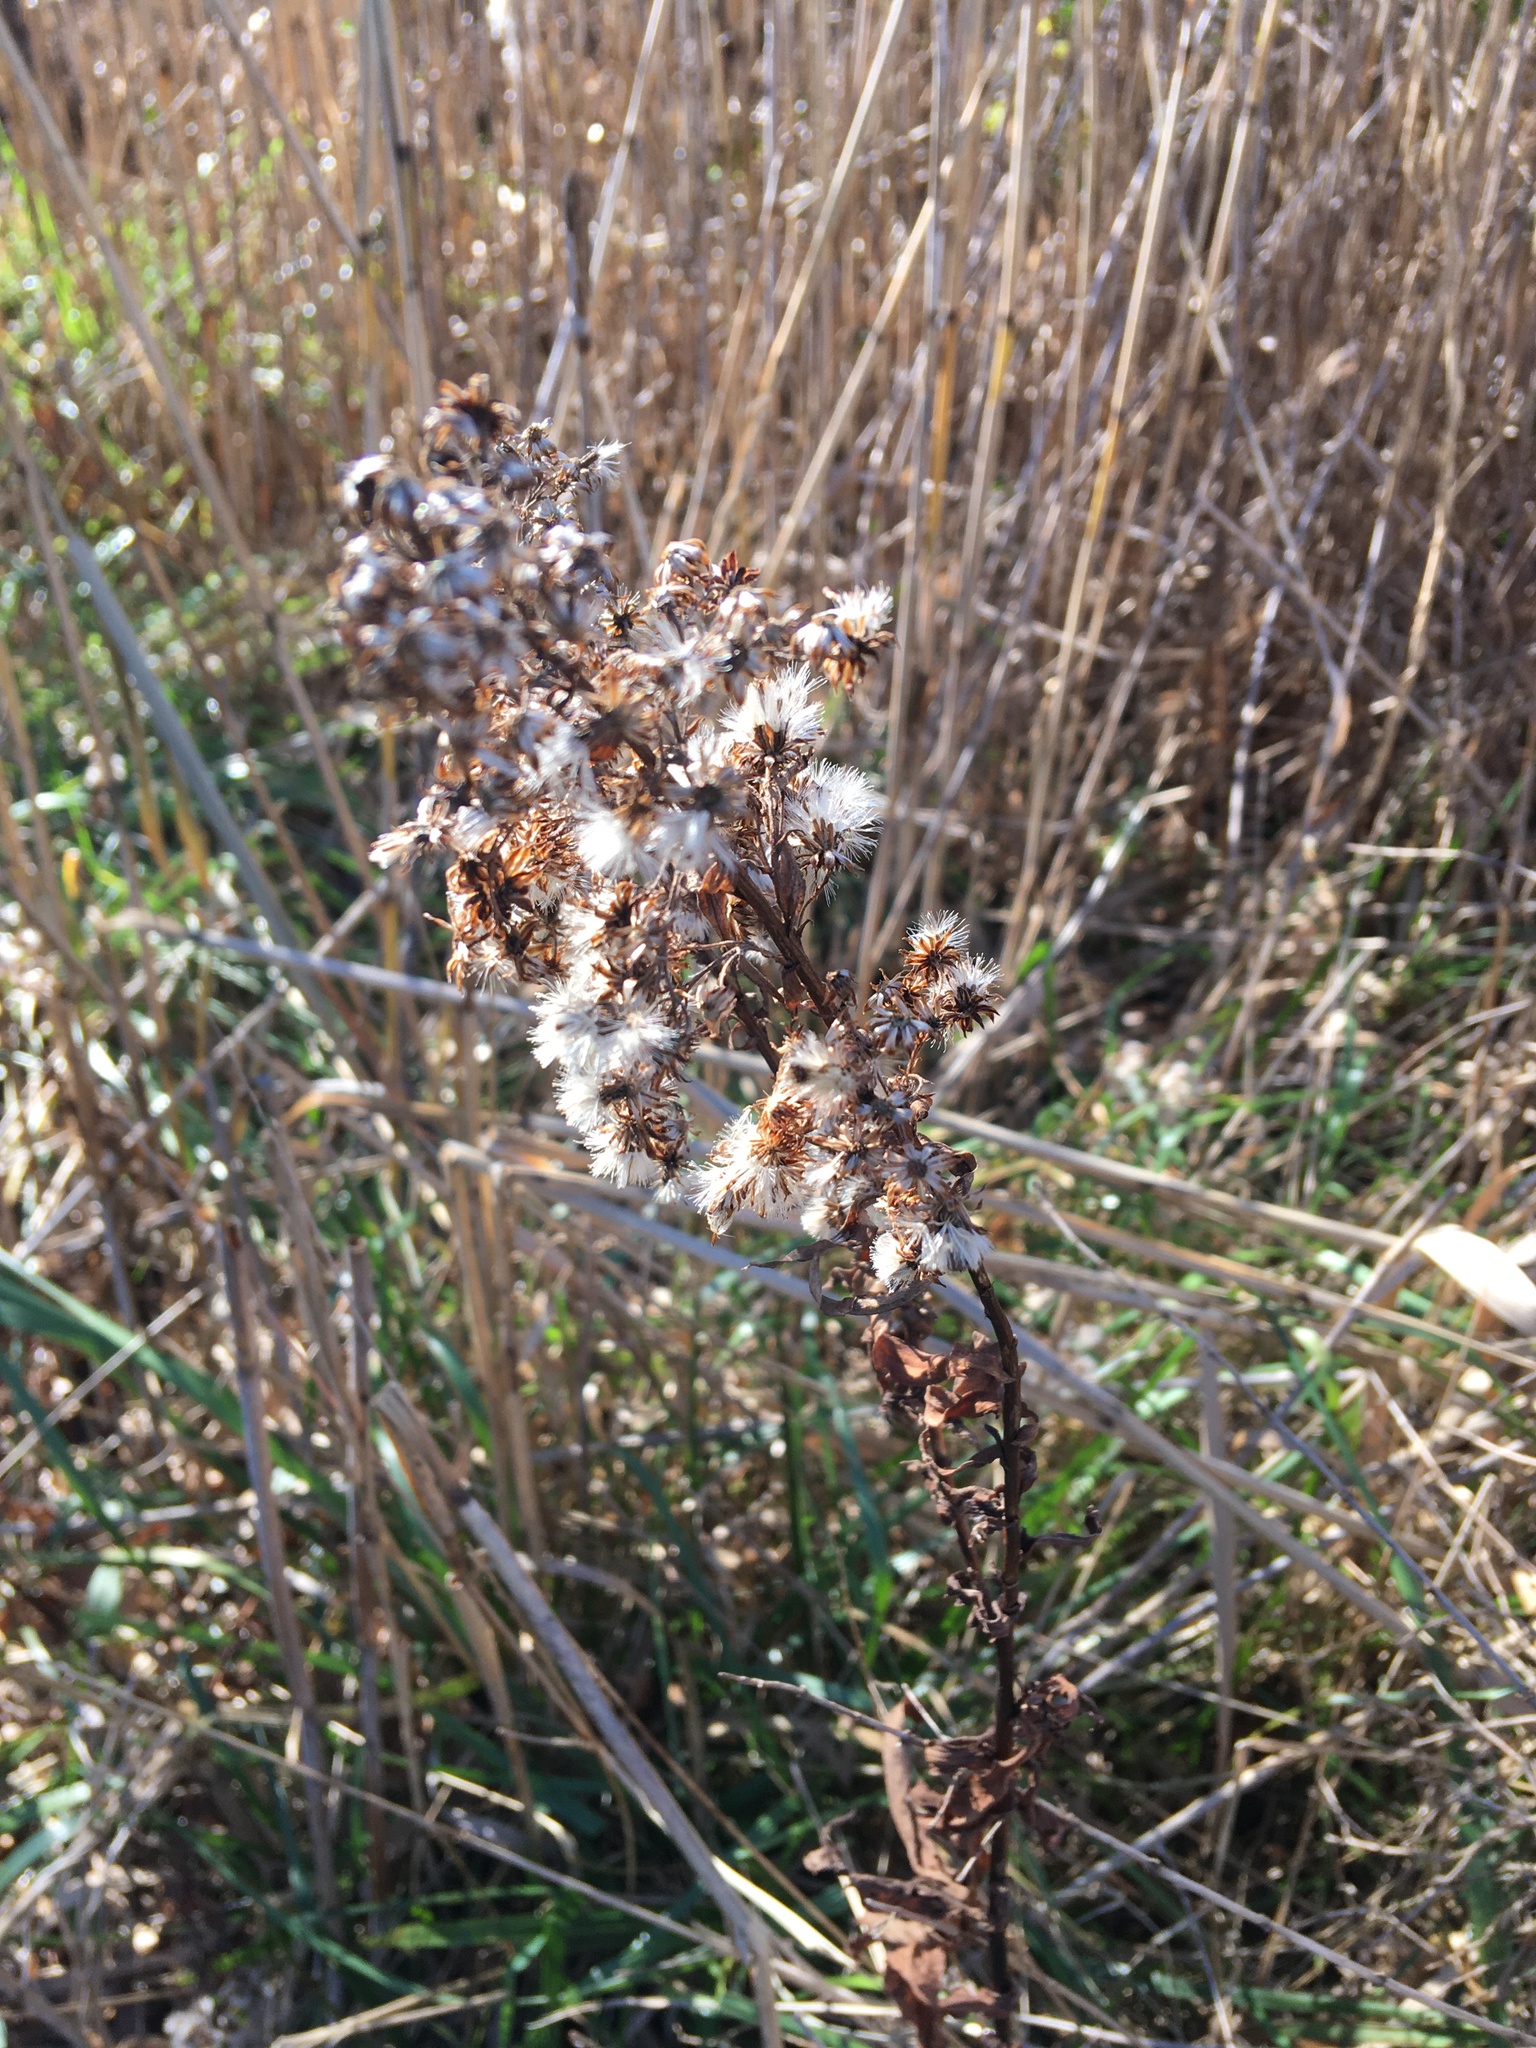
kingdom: Plantae
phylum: Tracheophyta
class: Magnoliopsida
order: Asterales
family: Asteraceae
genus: Solidago
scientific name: Solidago sempervirens
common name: Salt-marsh goldenrod
